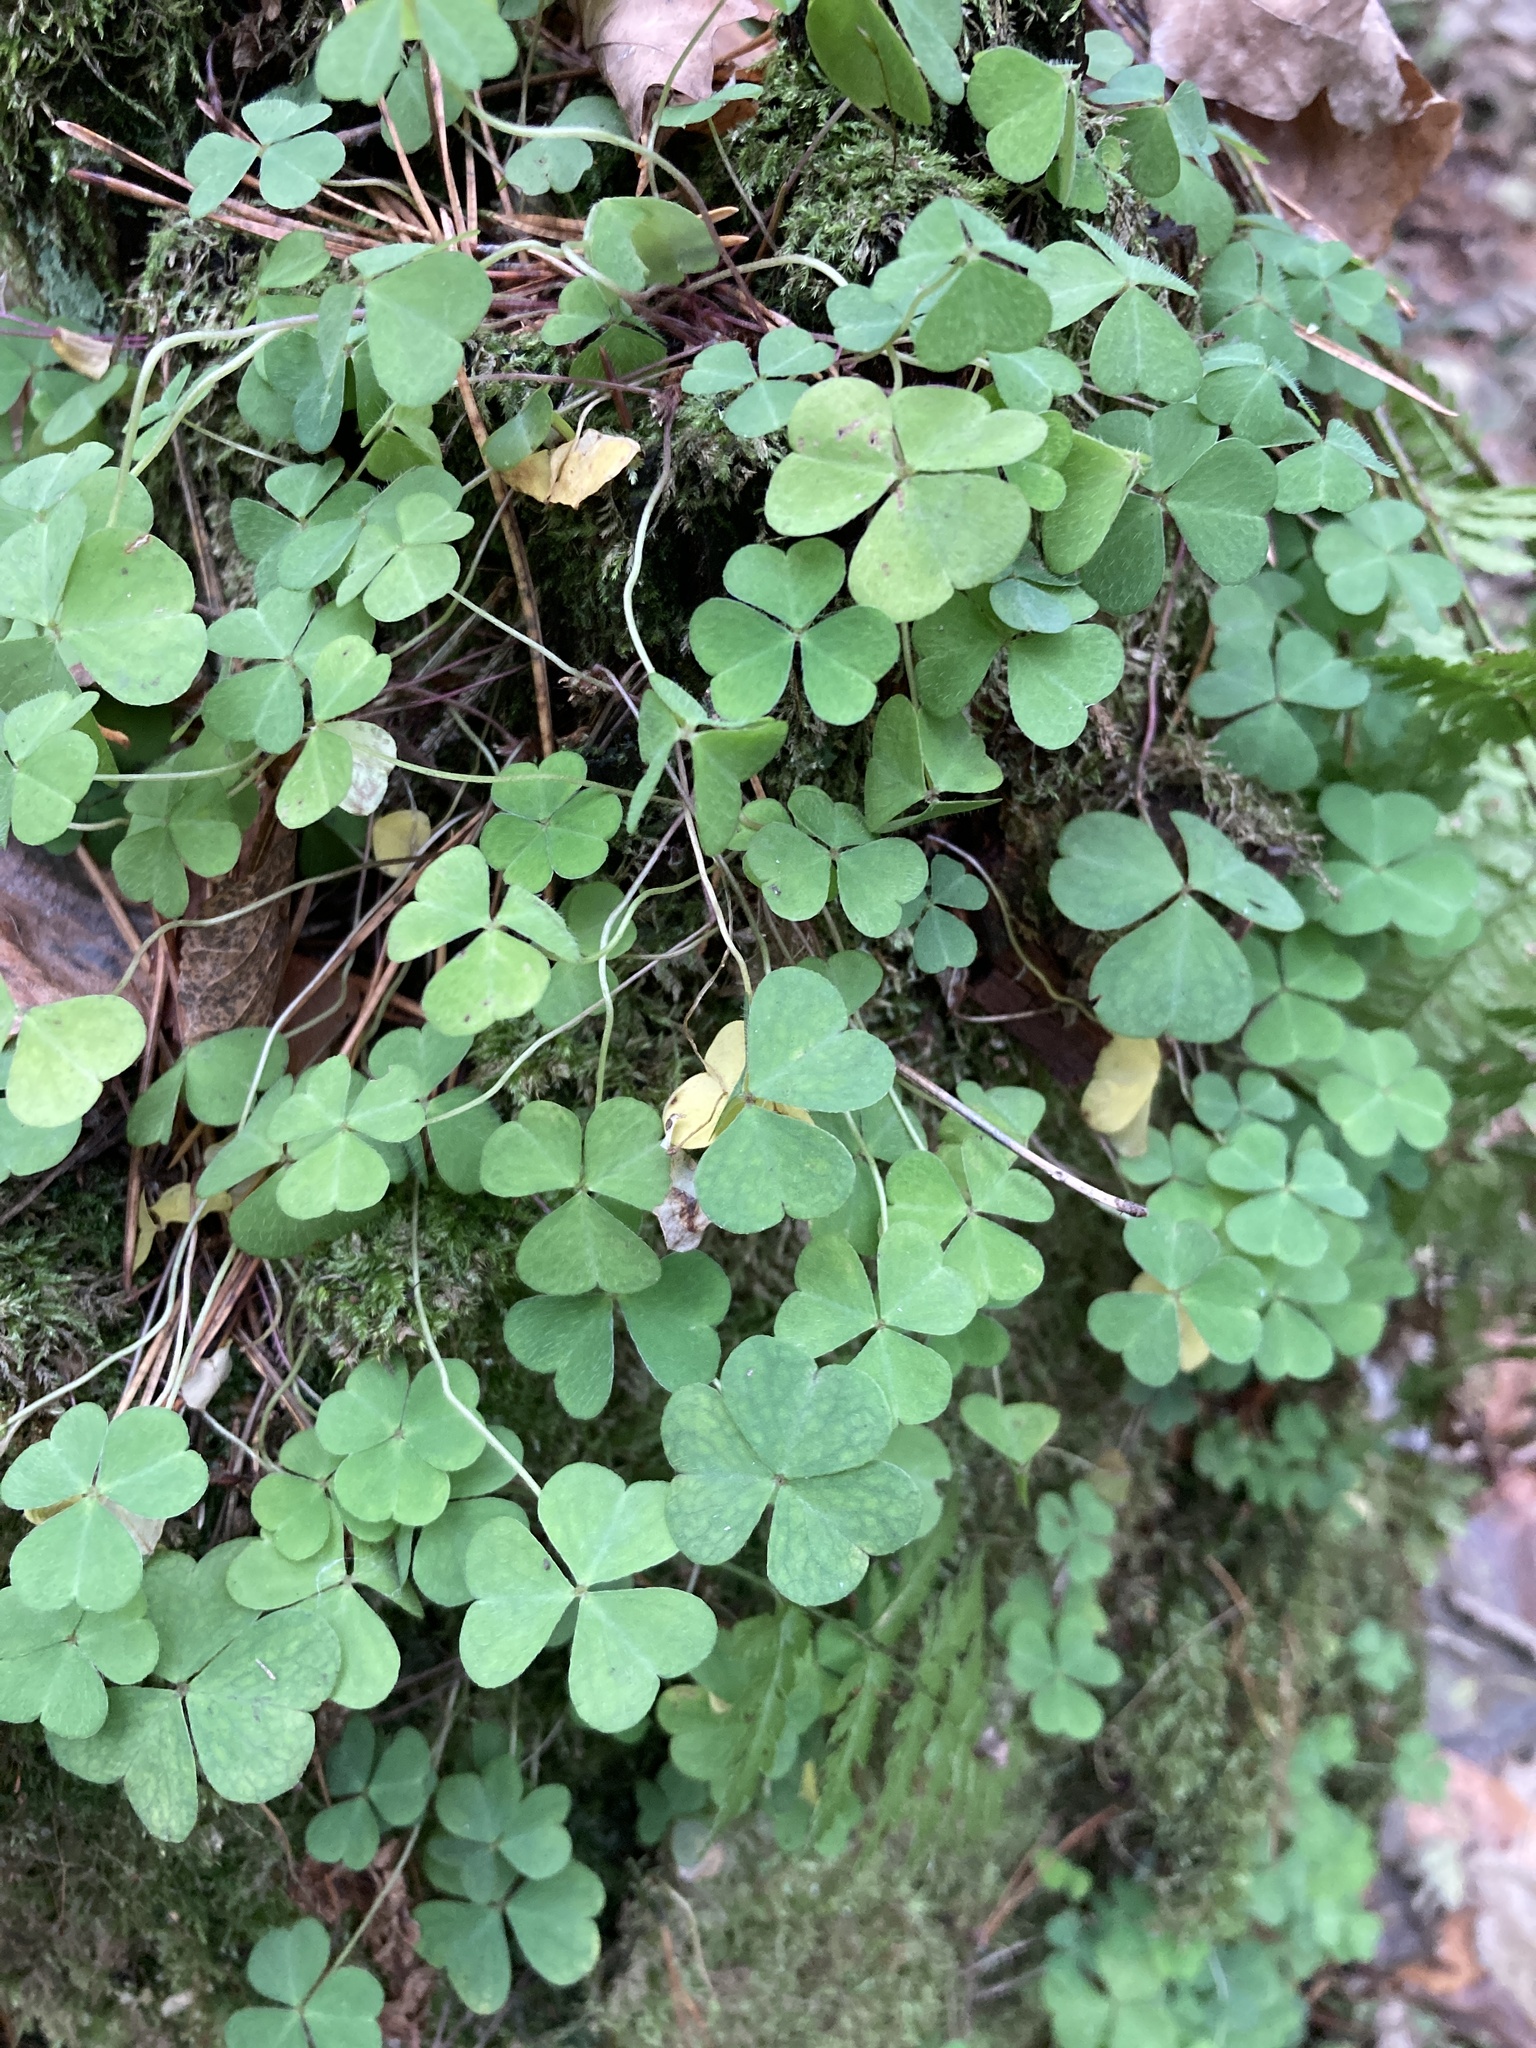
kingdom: Plantae
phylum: Tracheophyta
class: Magnoliopsida
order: Oxalidales
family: Oxalidaceae
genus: Oxalis
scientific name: Oxalis acetosella
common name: Wood-sorrel
